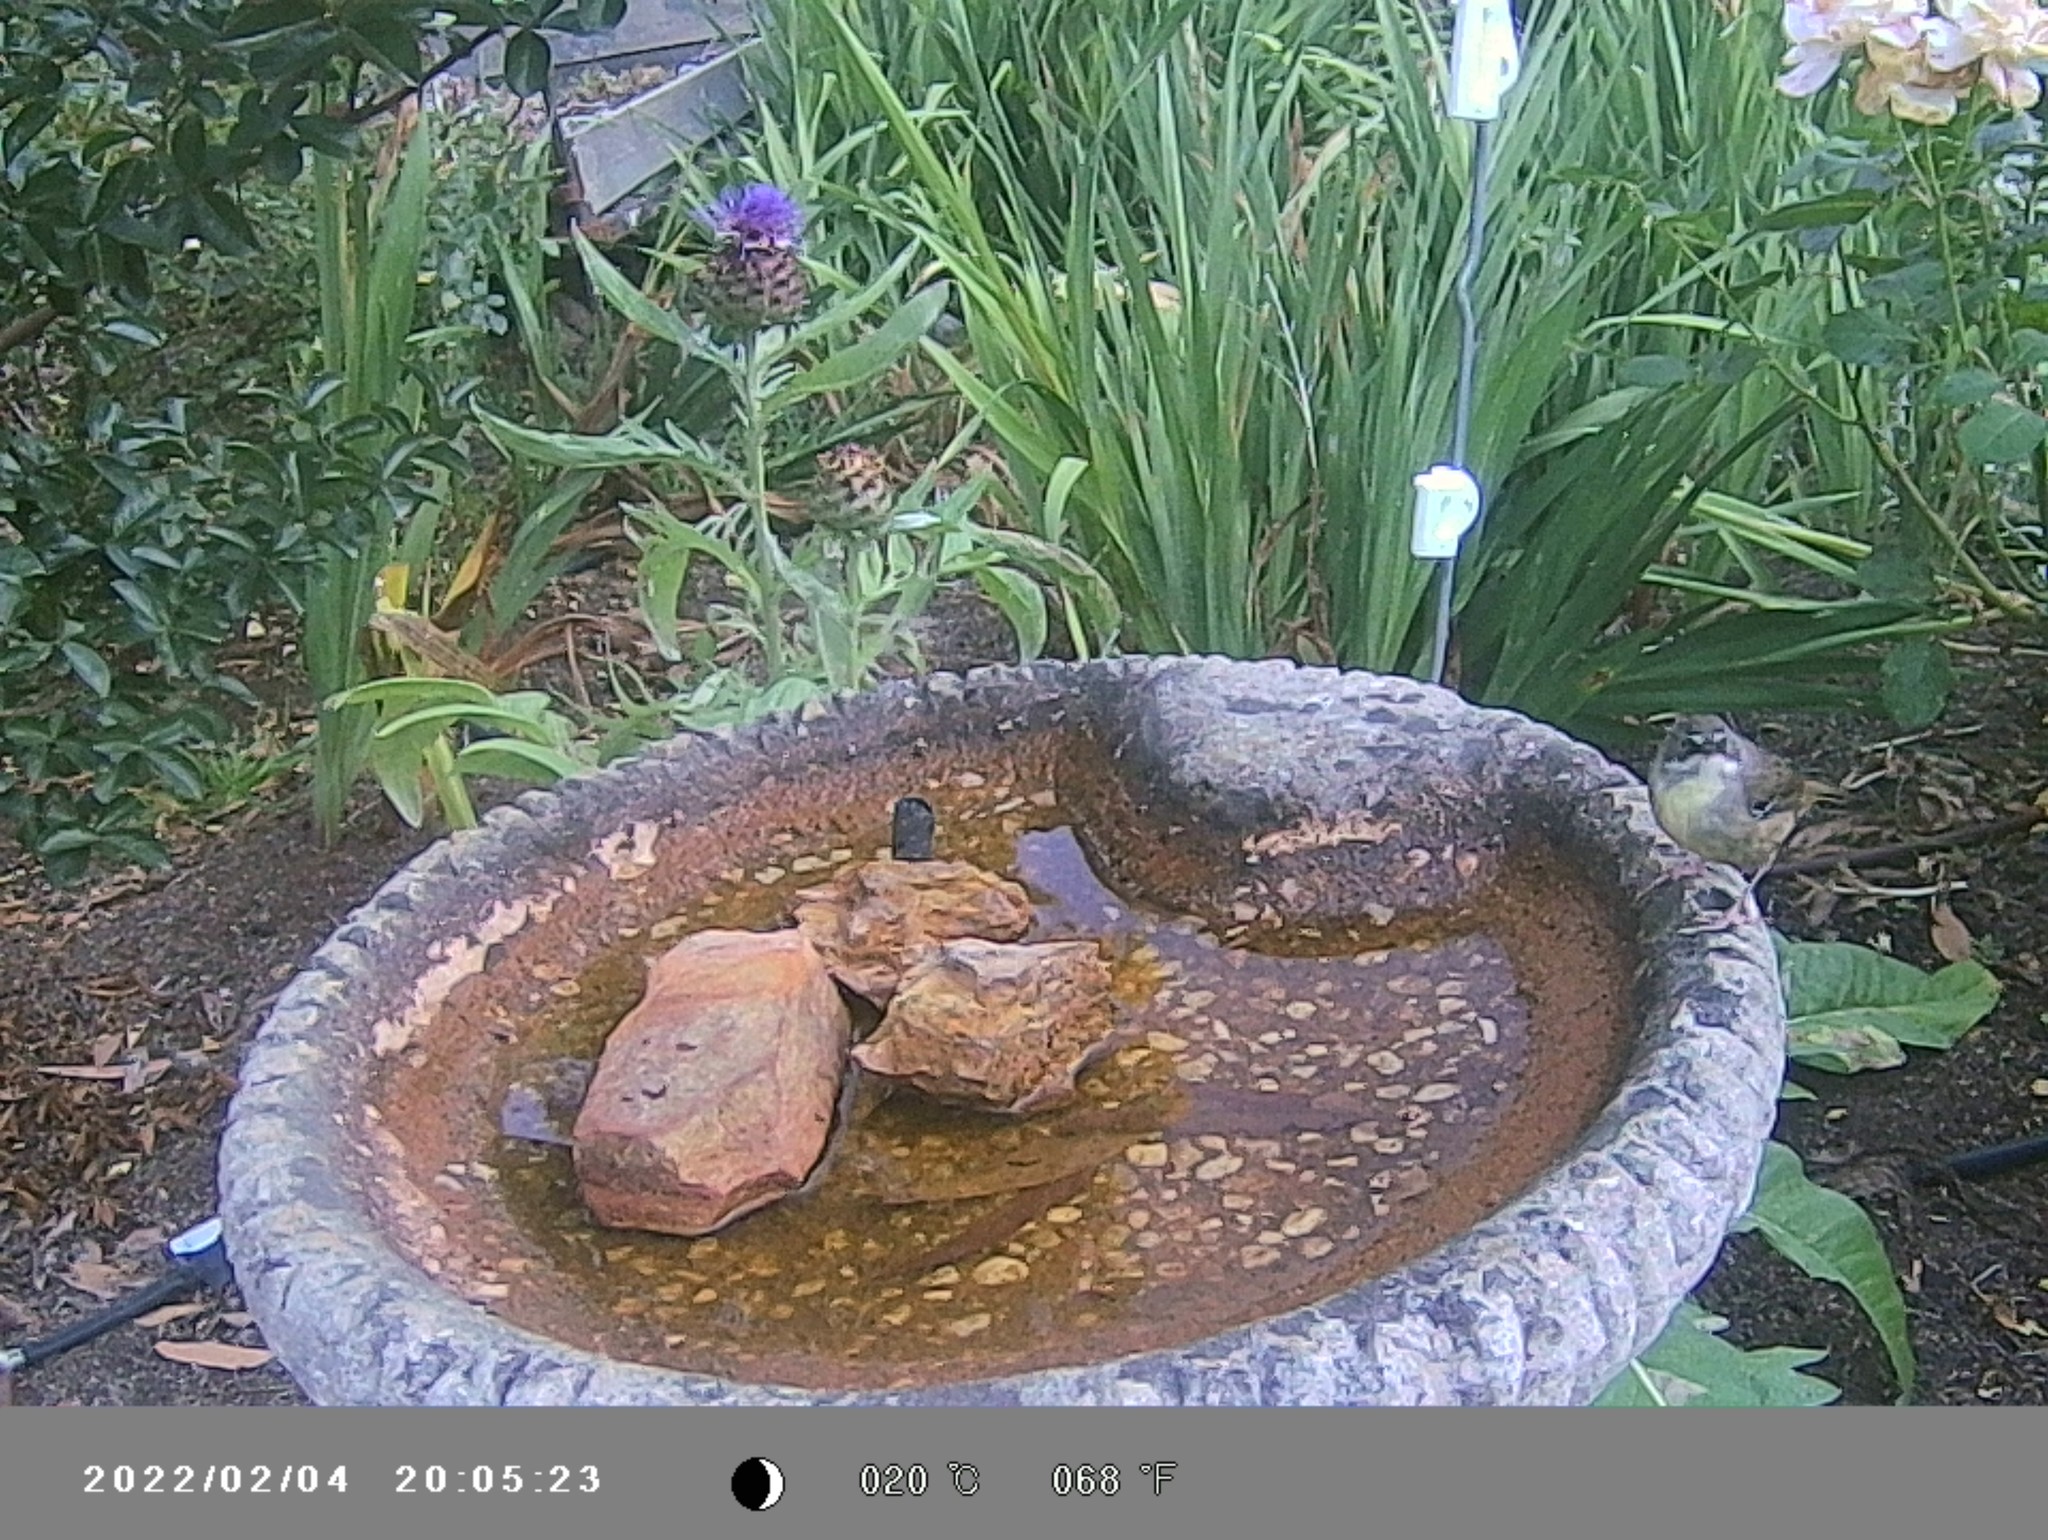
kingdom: Animalia
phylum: Chordata
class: Aves
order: Passeriformes
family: Acanthizidae
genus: Sericornis
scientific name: Sericornis frontalis
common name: White-browed scrubwren
